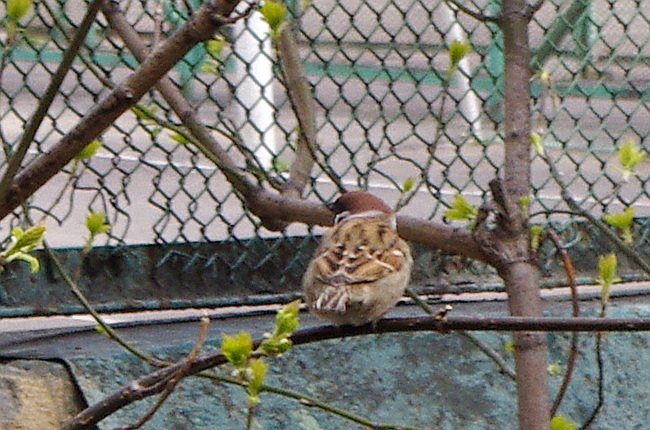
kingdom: Animalia
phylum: Chordata
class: Aves
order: Passeriformes
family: Passeridae
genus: Passer
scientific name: Passer montanus
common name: Eurasian tree sparrow
